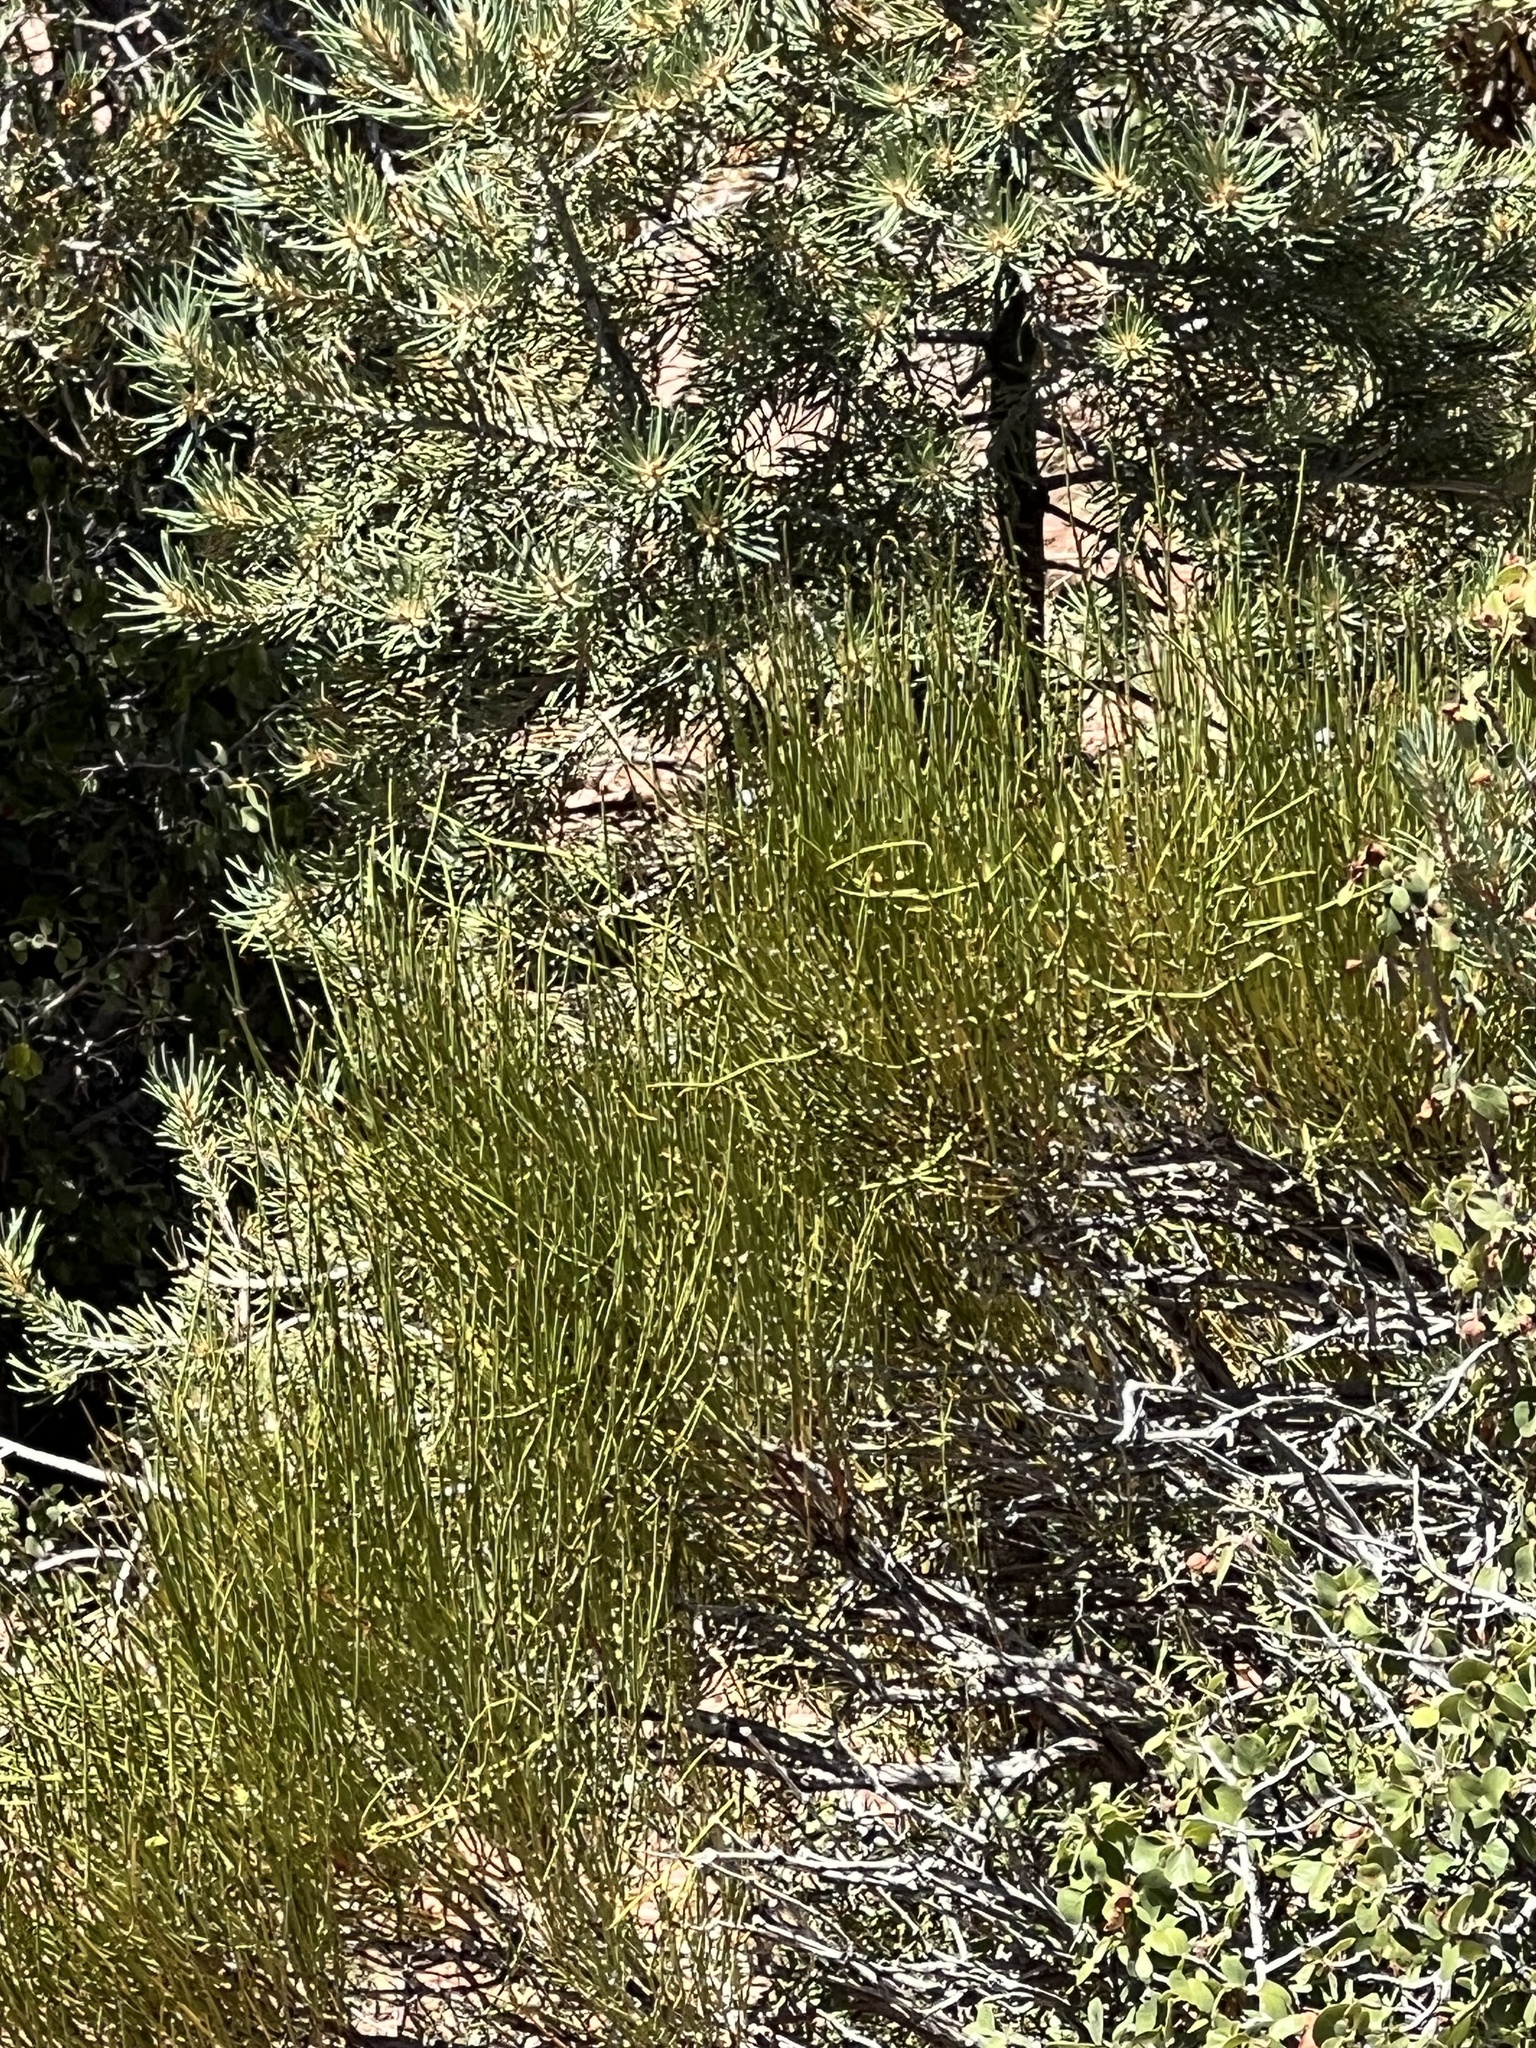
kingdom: Plantae
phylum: Tracheophyta
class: Gnetopsida
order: Ephedrales
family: Ephedraceae
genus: Ephedra
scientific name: Ephedra viridis
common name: Green ephedra
